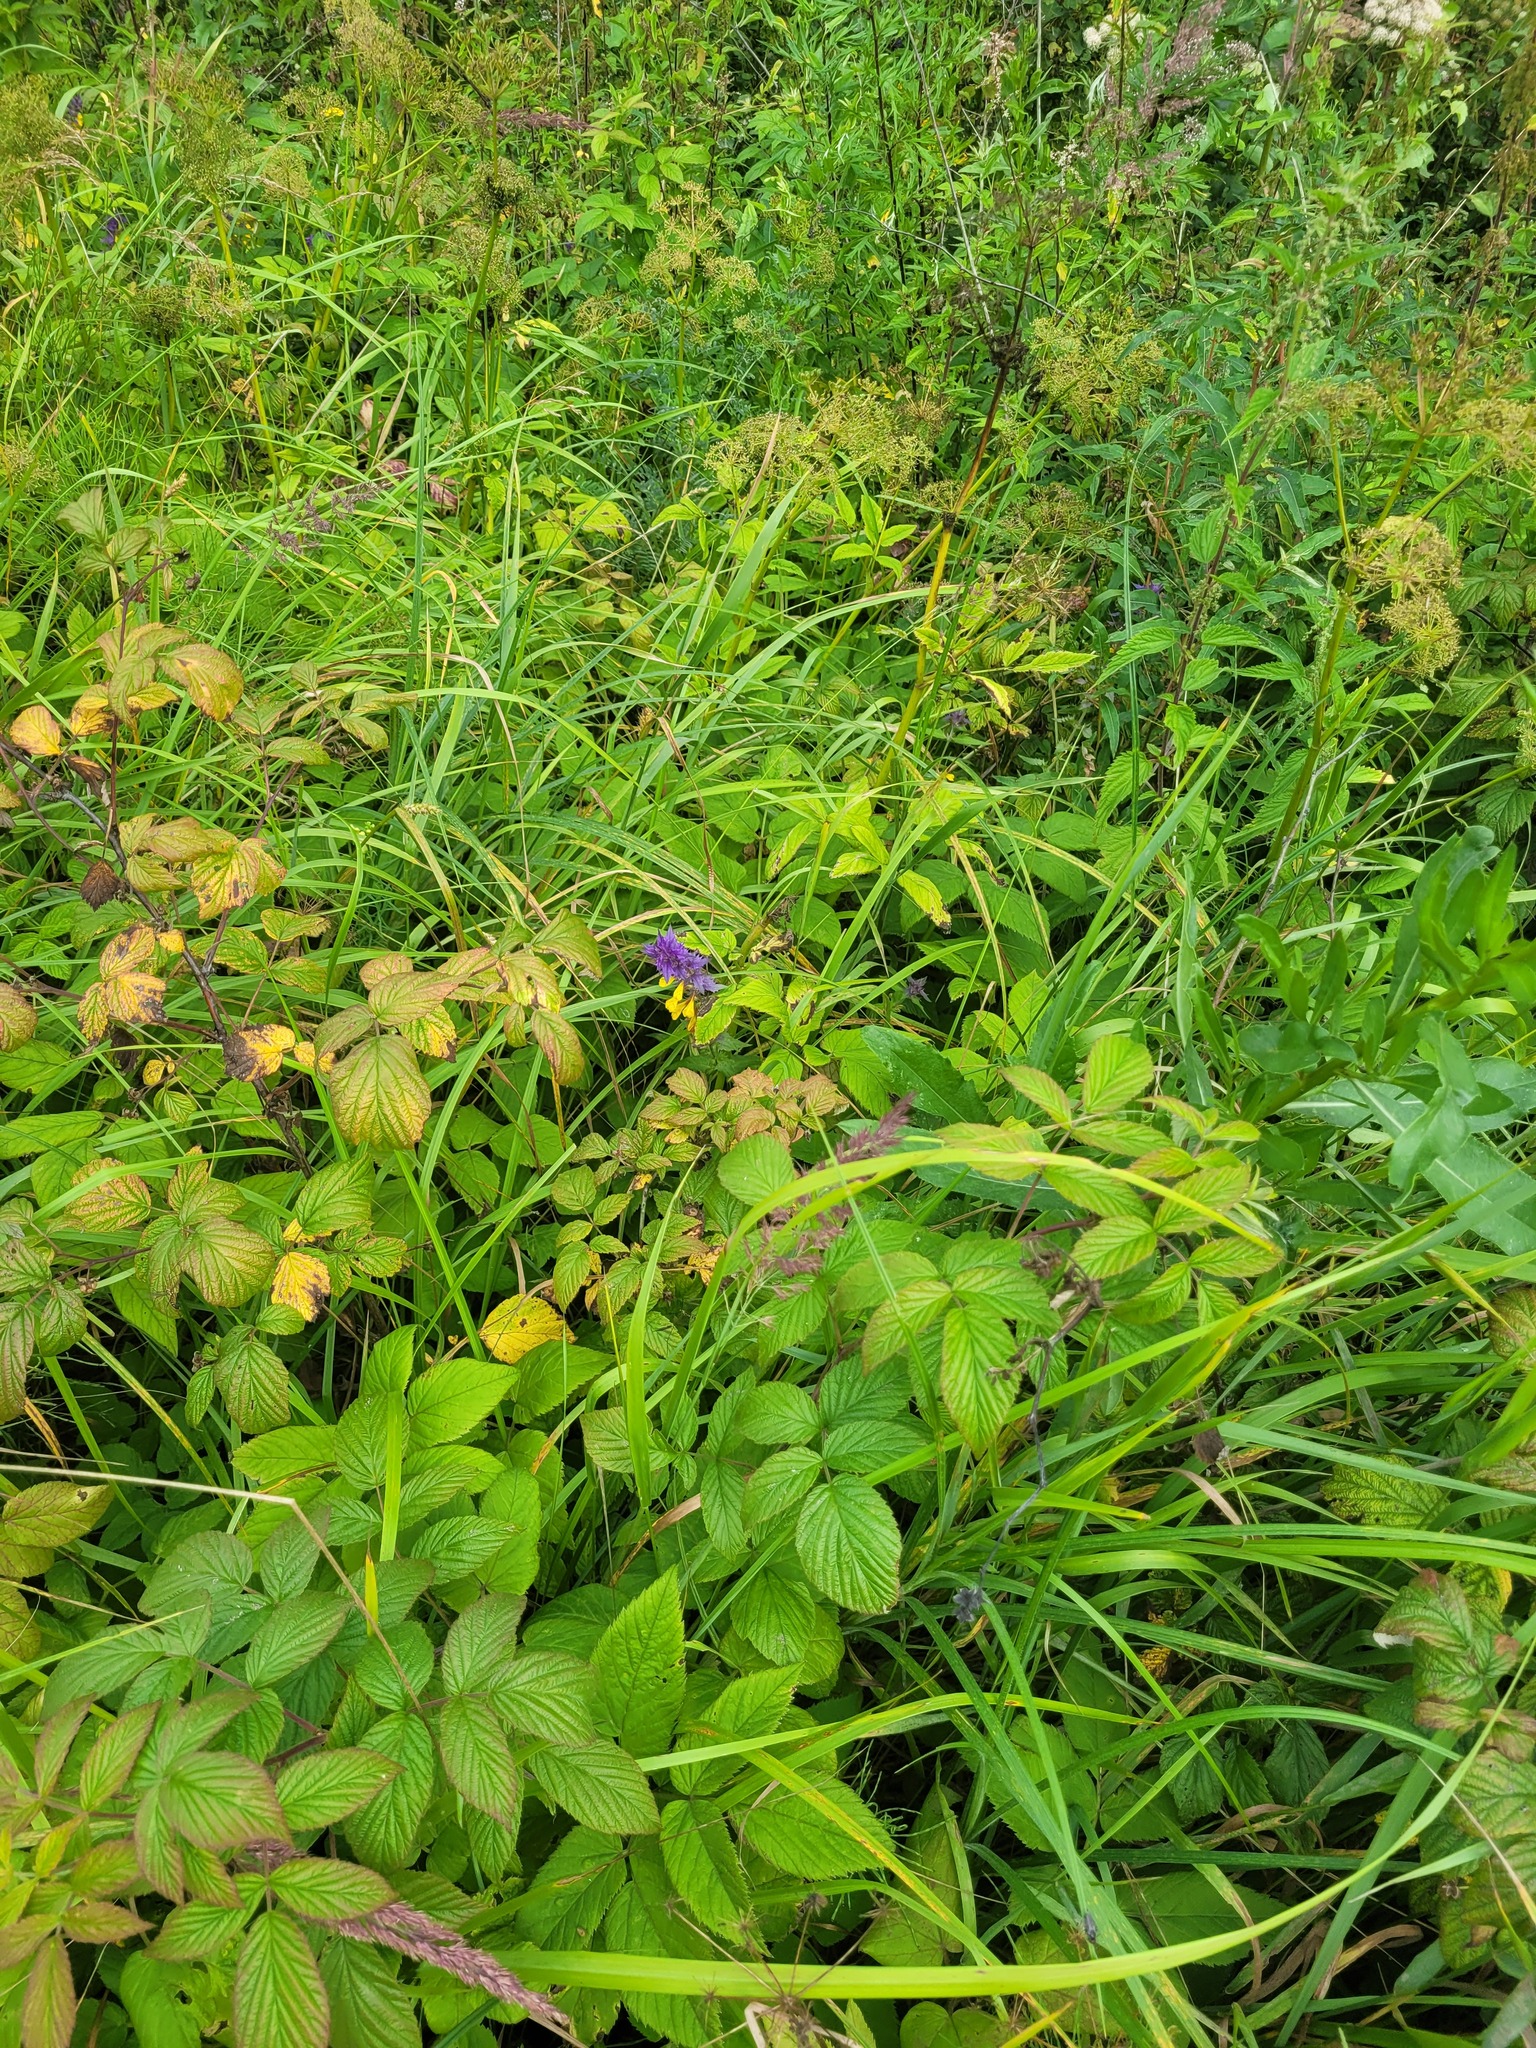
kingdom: Plantae
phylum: Tracheophyta
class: Magnoliopsida
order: Lamiales
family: Orobanchaceae
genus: Melampyrum
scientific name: Melampyrum nemorosum
